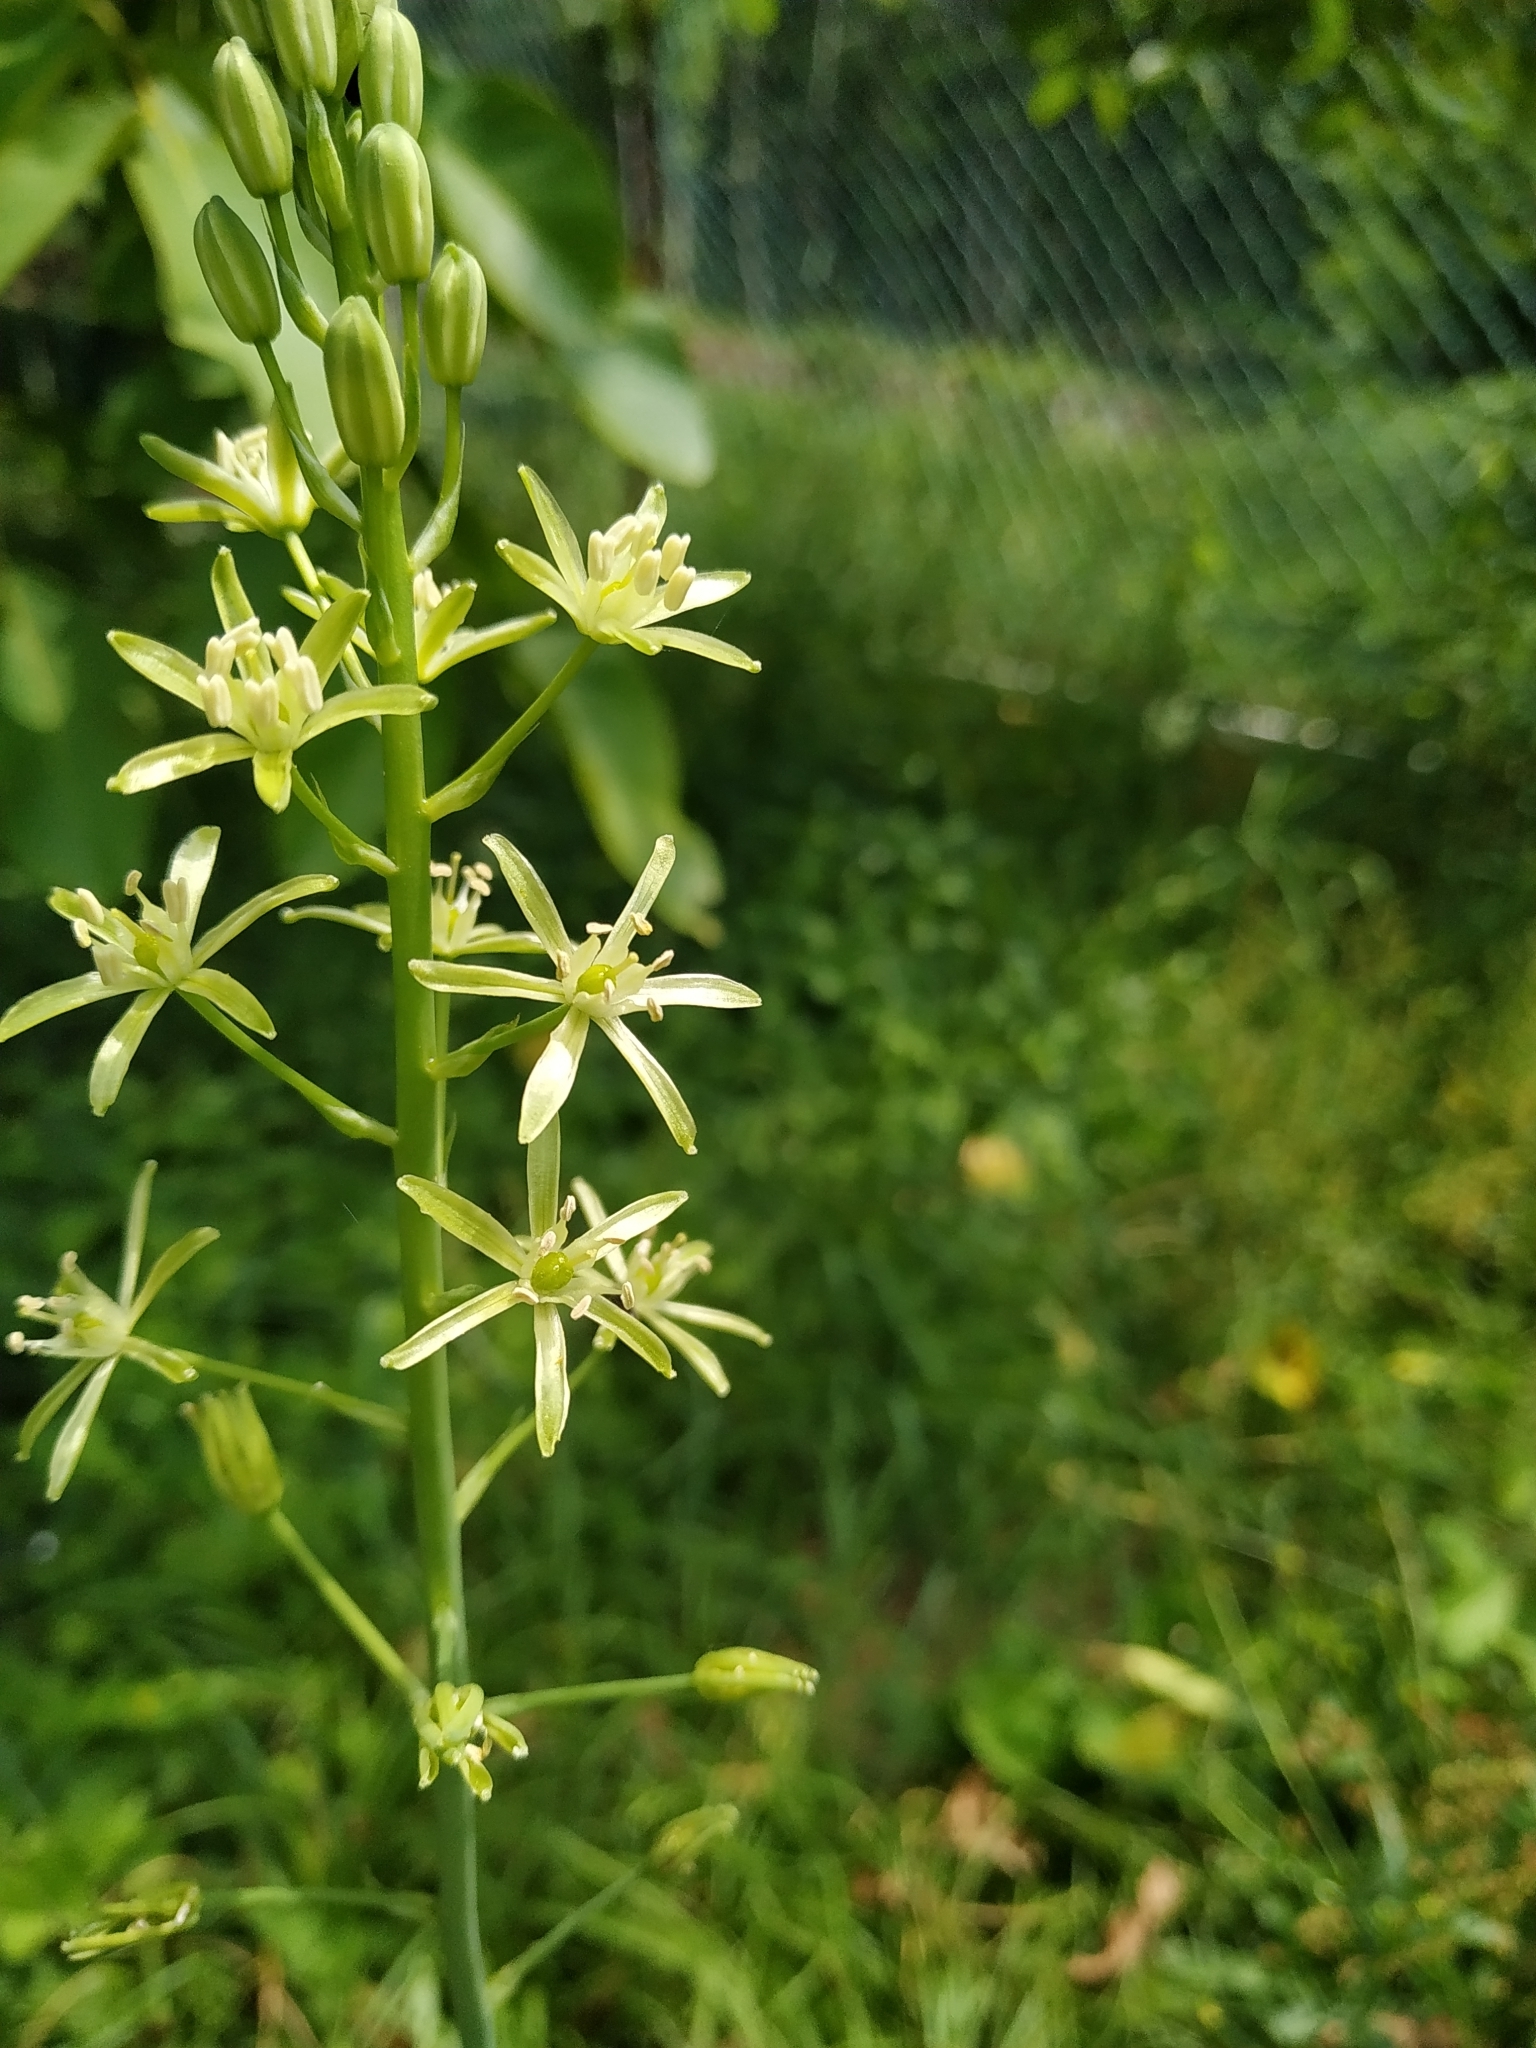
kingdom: Plantae
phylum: Tracheophyta
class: Liliopsida
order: Asparagales
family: Asparagaceae
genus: Ornithogalum
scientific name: Ornithogalum pyrenaicum
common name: Spiked star-of-bethlehem
